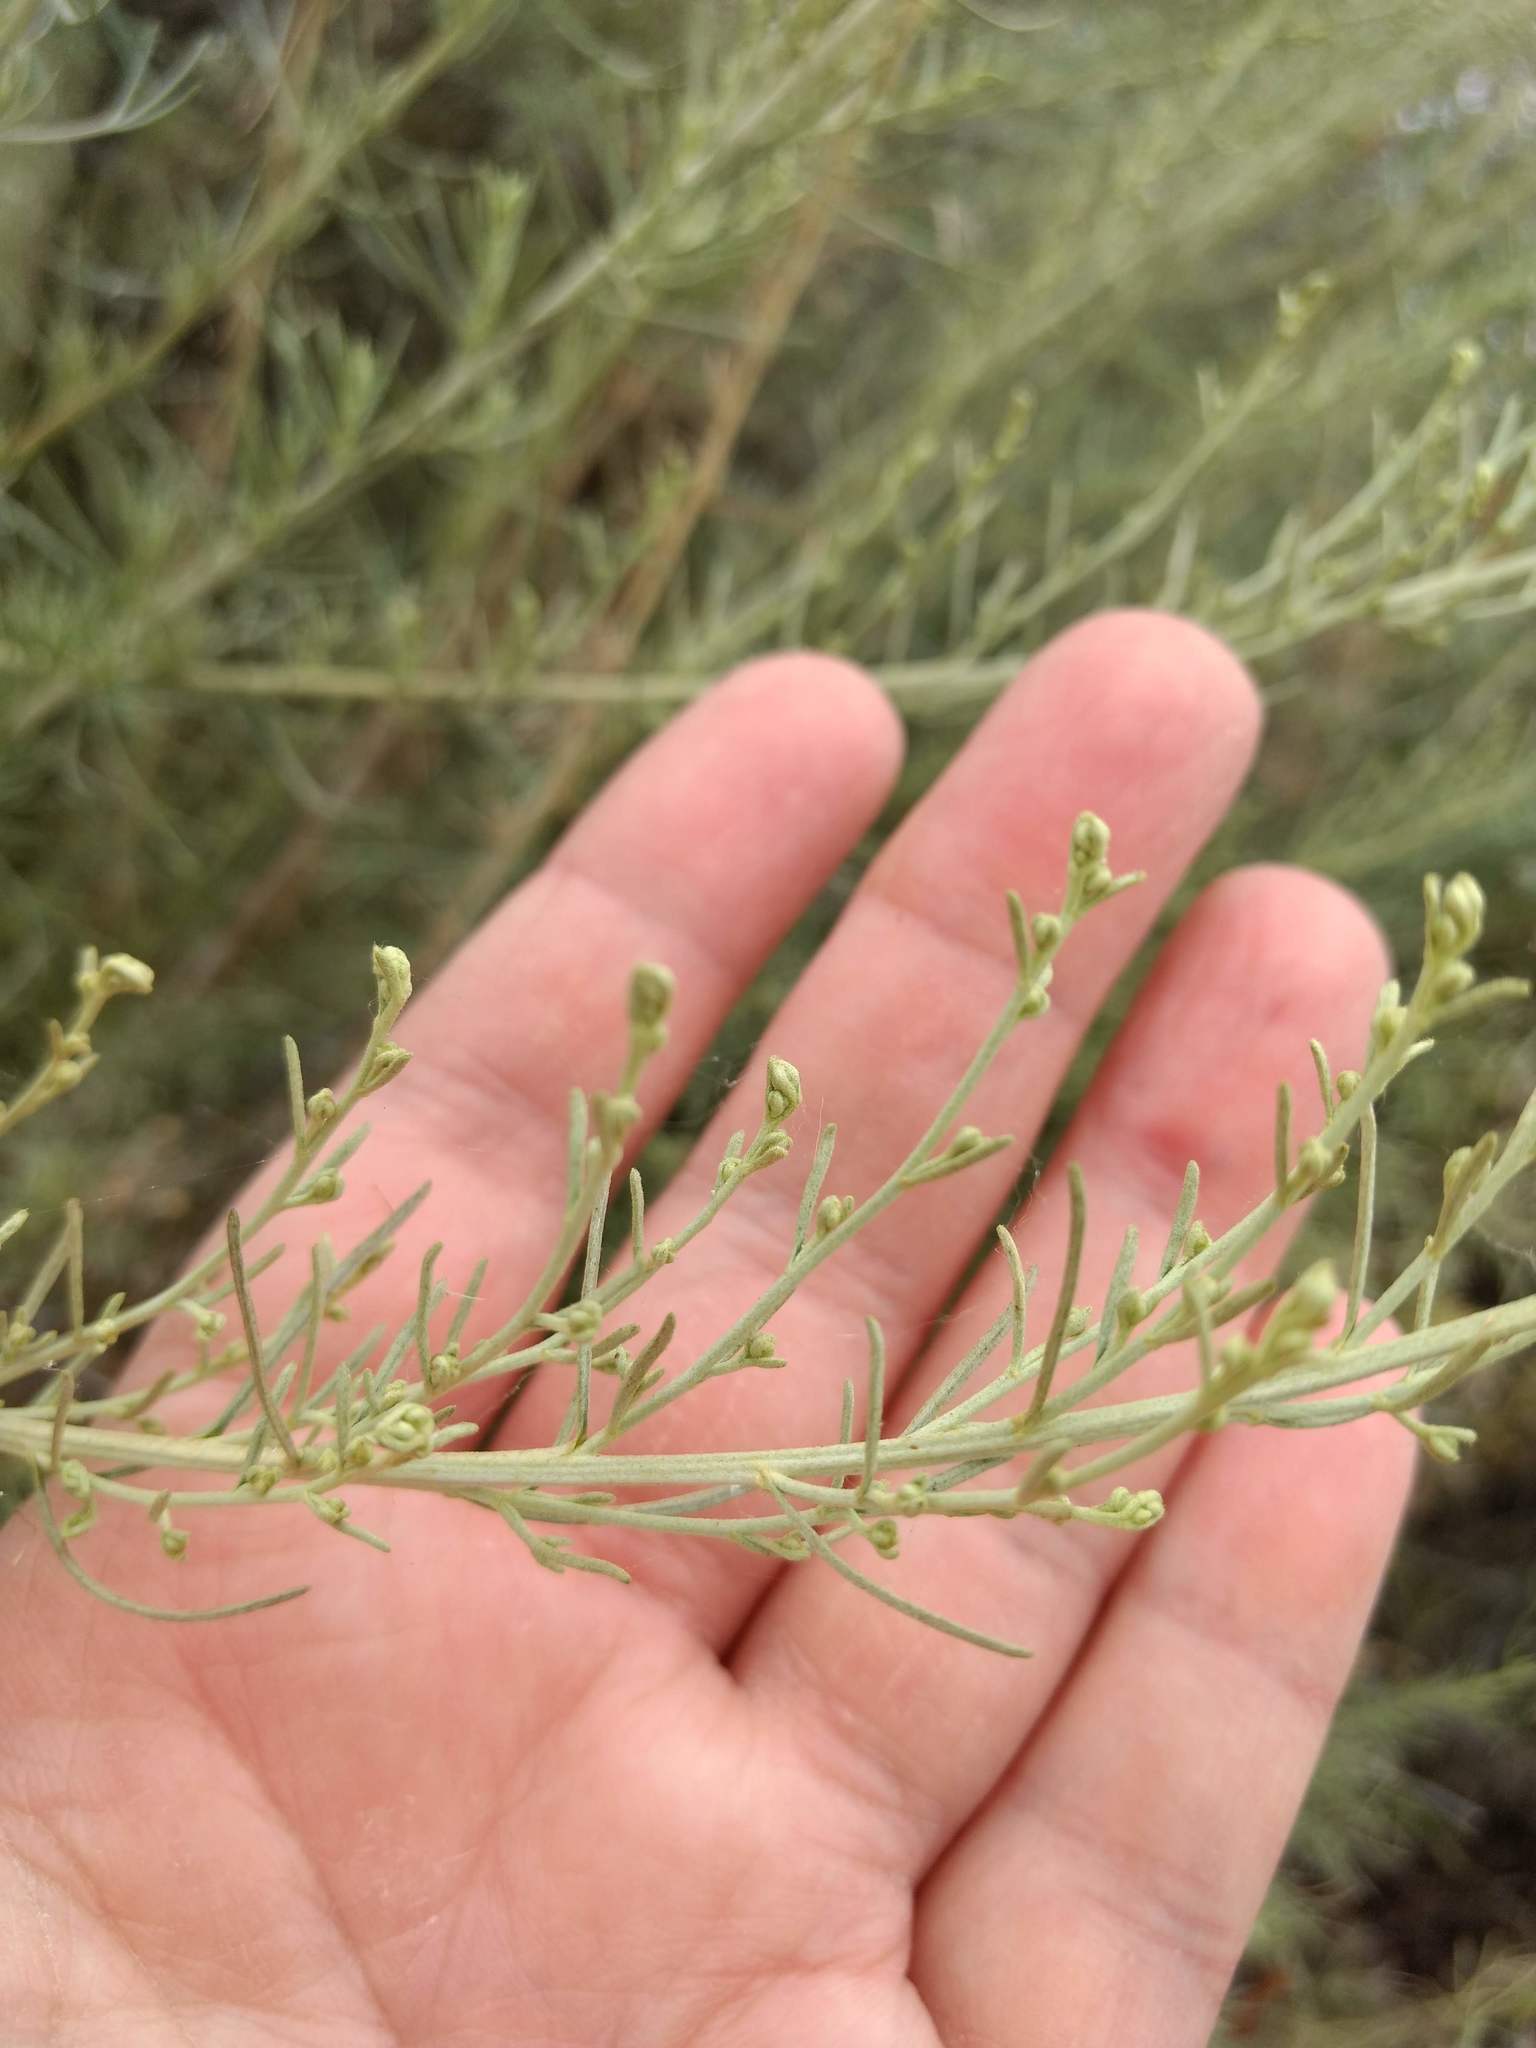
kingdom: Plantae
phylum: Tracheophyta
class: Magnoliopsida
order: Asterales
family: Asteraceae
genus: Artemisia
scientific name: Artemisia californica
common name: California sagebrush
